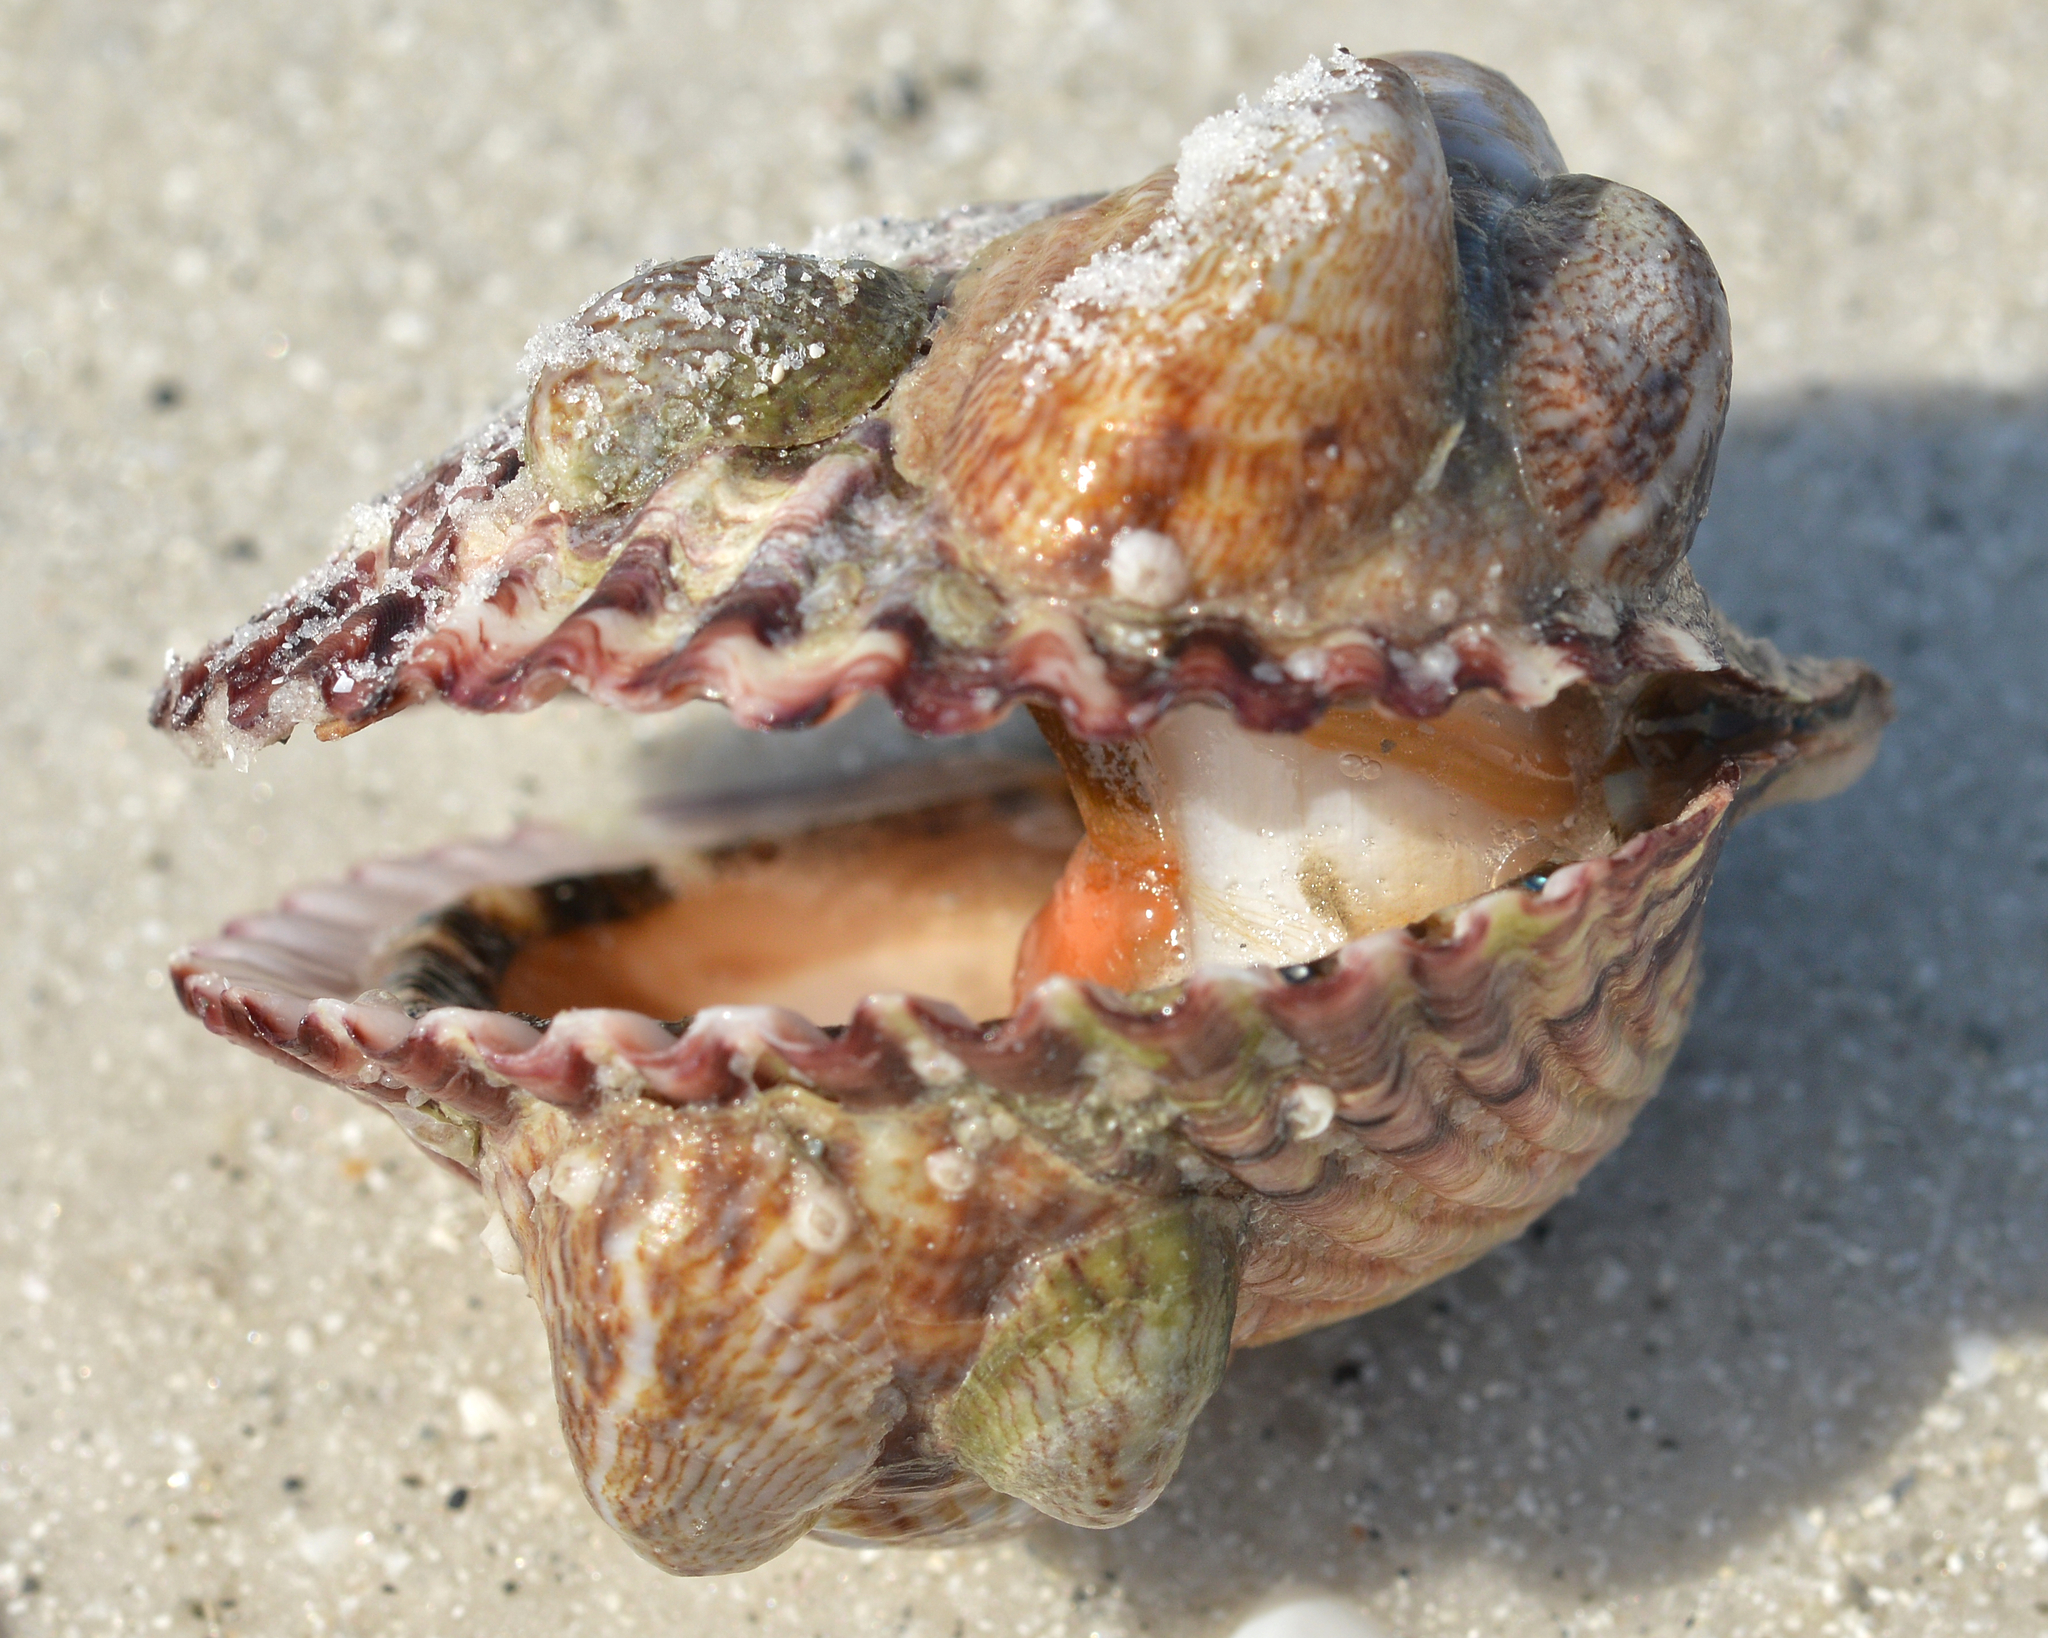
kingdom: Animalia
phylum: Mollusca
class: Bivalvia
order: Pectinida
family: Pectinidae
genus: Argopecten
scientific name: Argopecten gibbus
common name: Atlantic calico scallop
